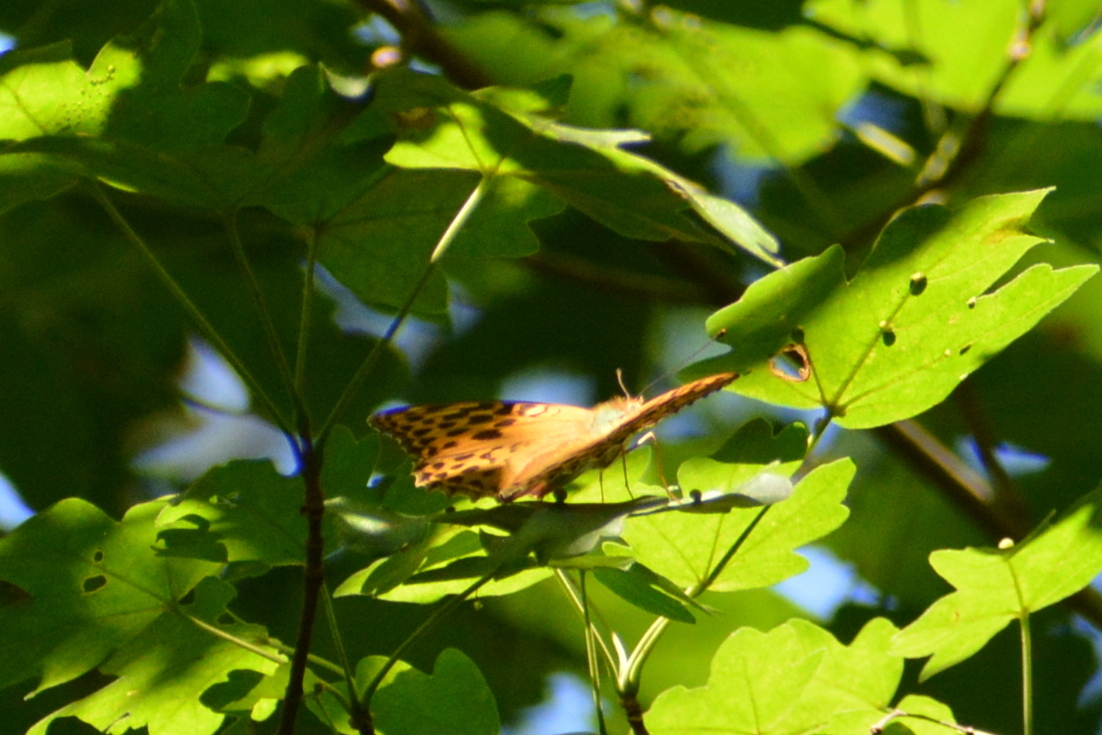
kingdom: Animalia
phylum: Arthropoda
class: Insecta
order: Lepidoptera
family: Nymphalidae
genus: Argynnis
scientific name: Argynnis paphia
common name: Silver-washed fritillary
